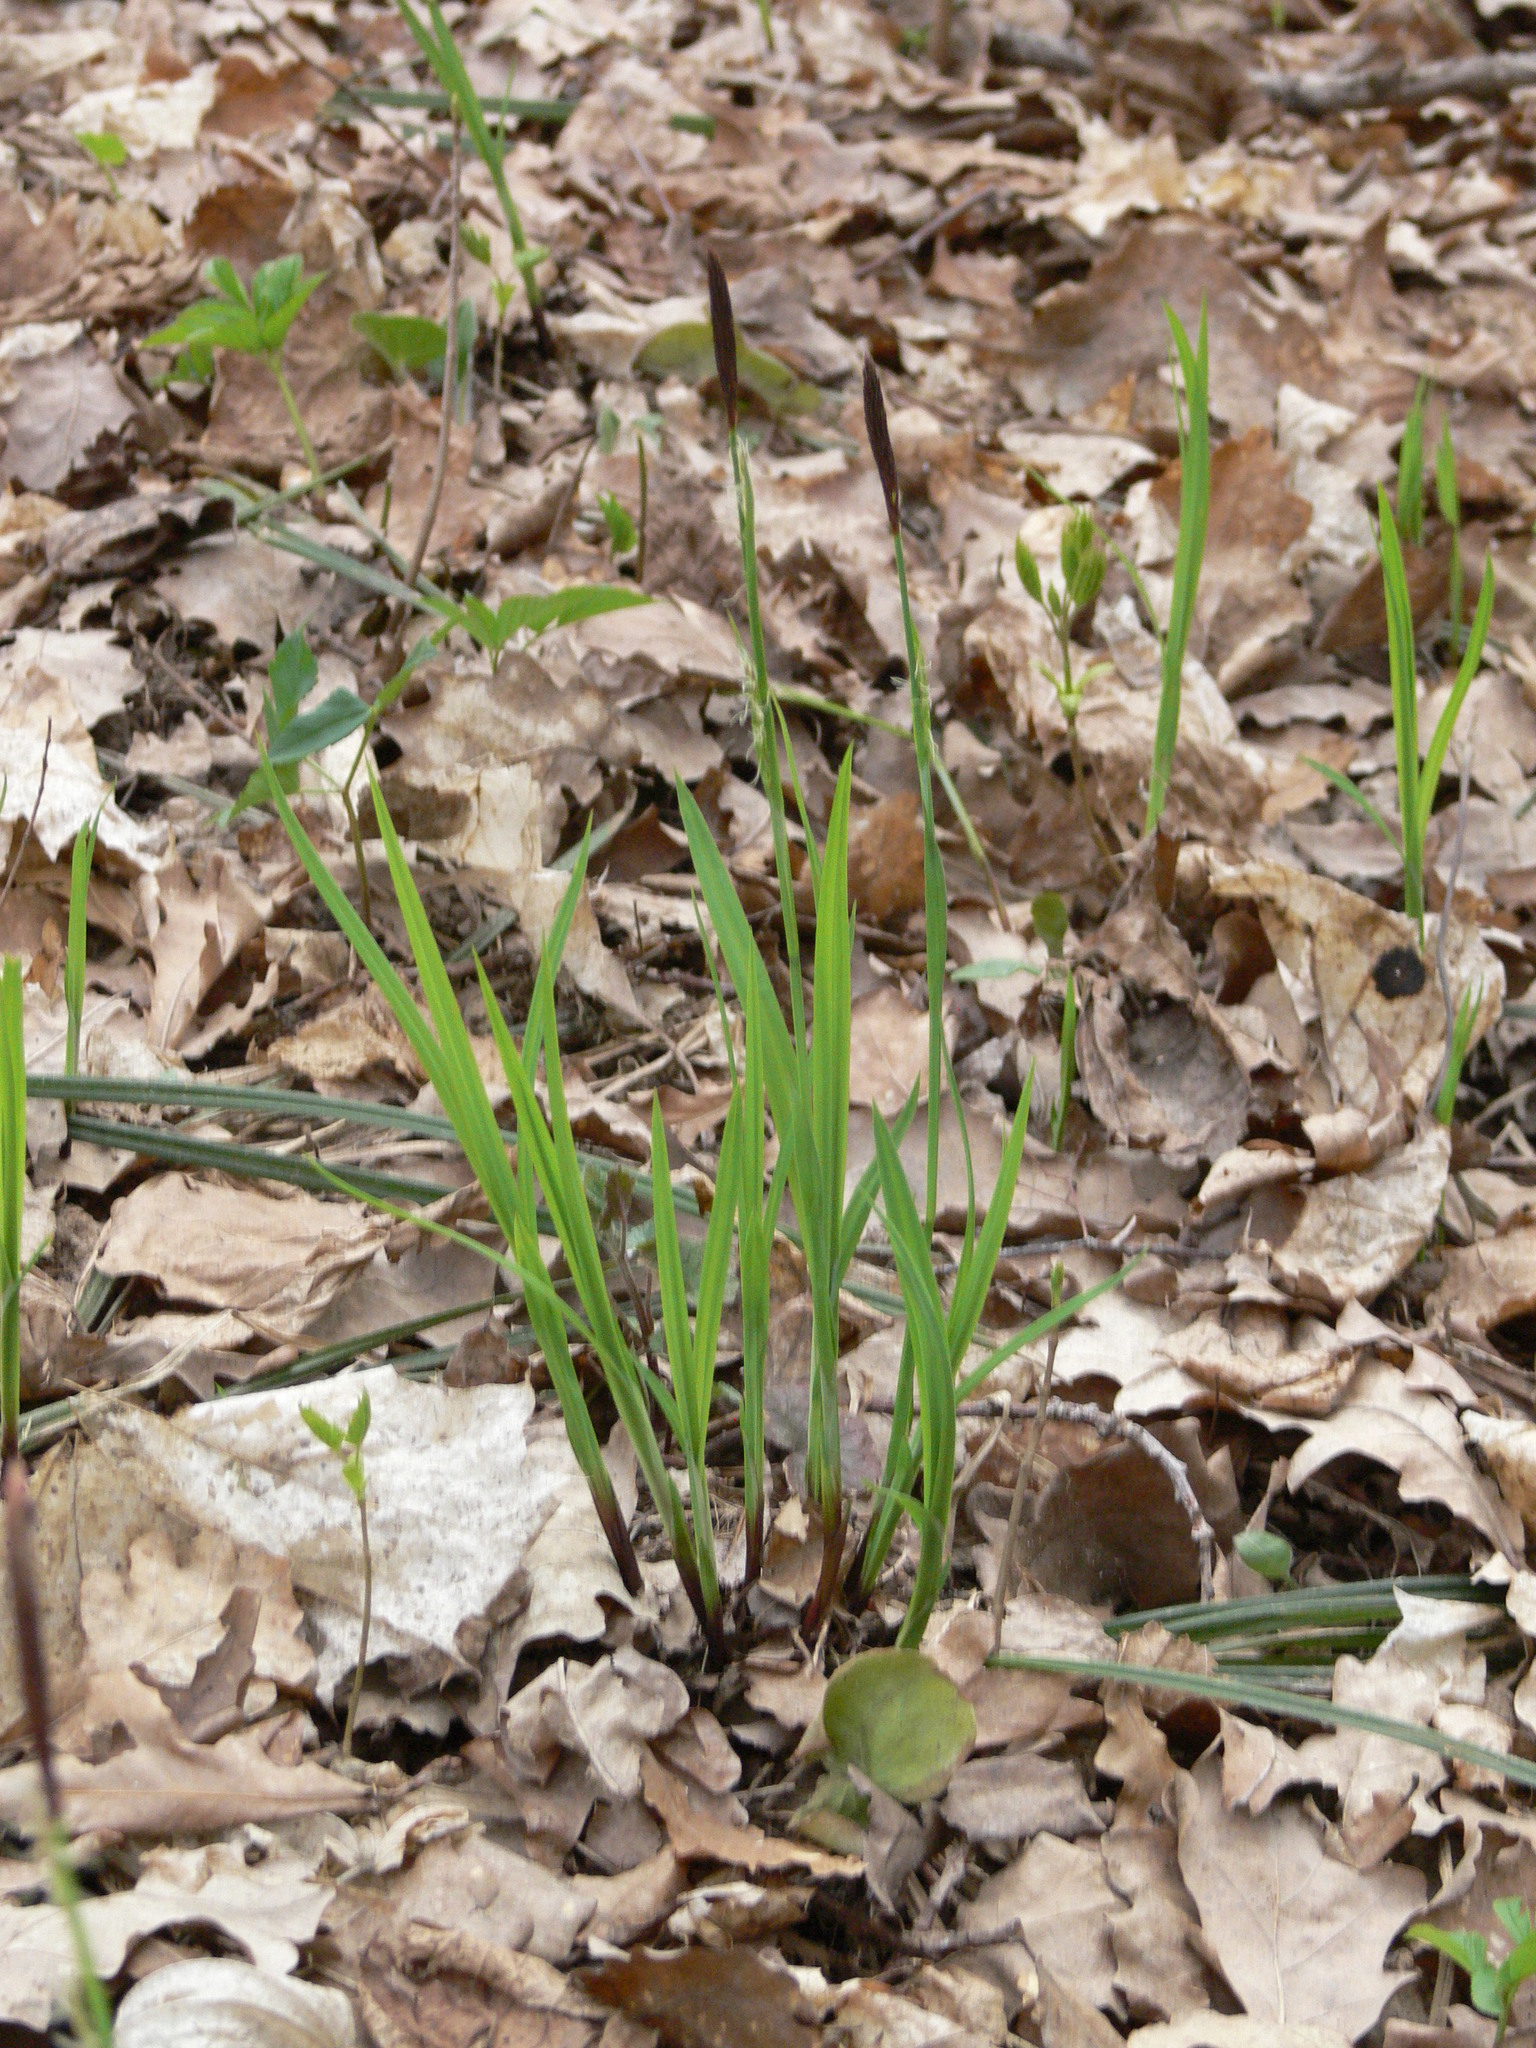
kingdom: Plantae
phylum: Tracheophyta
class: Liliopsida
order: Poales
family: Cyperaceae
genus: Carex
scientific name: Carex pilosa
